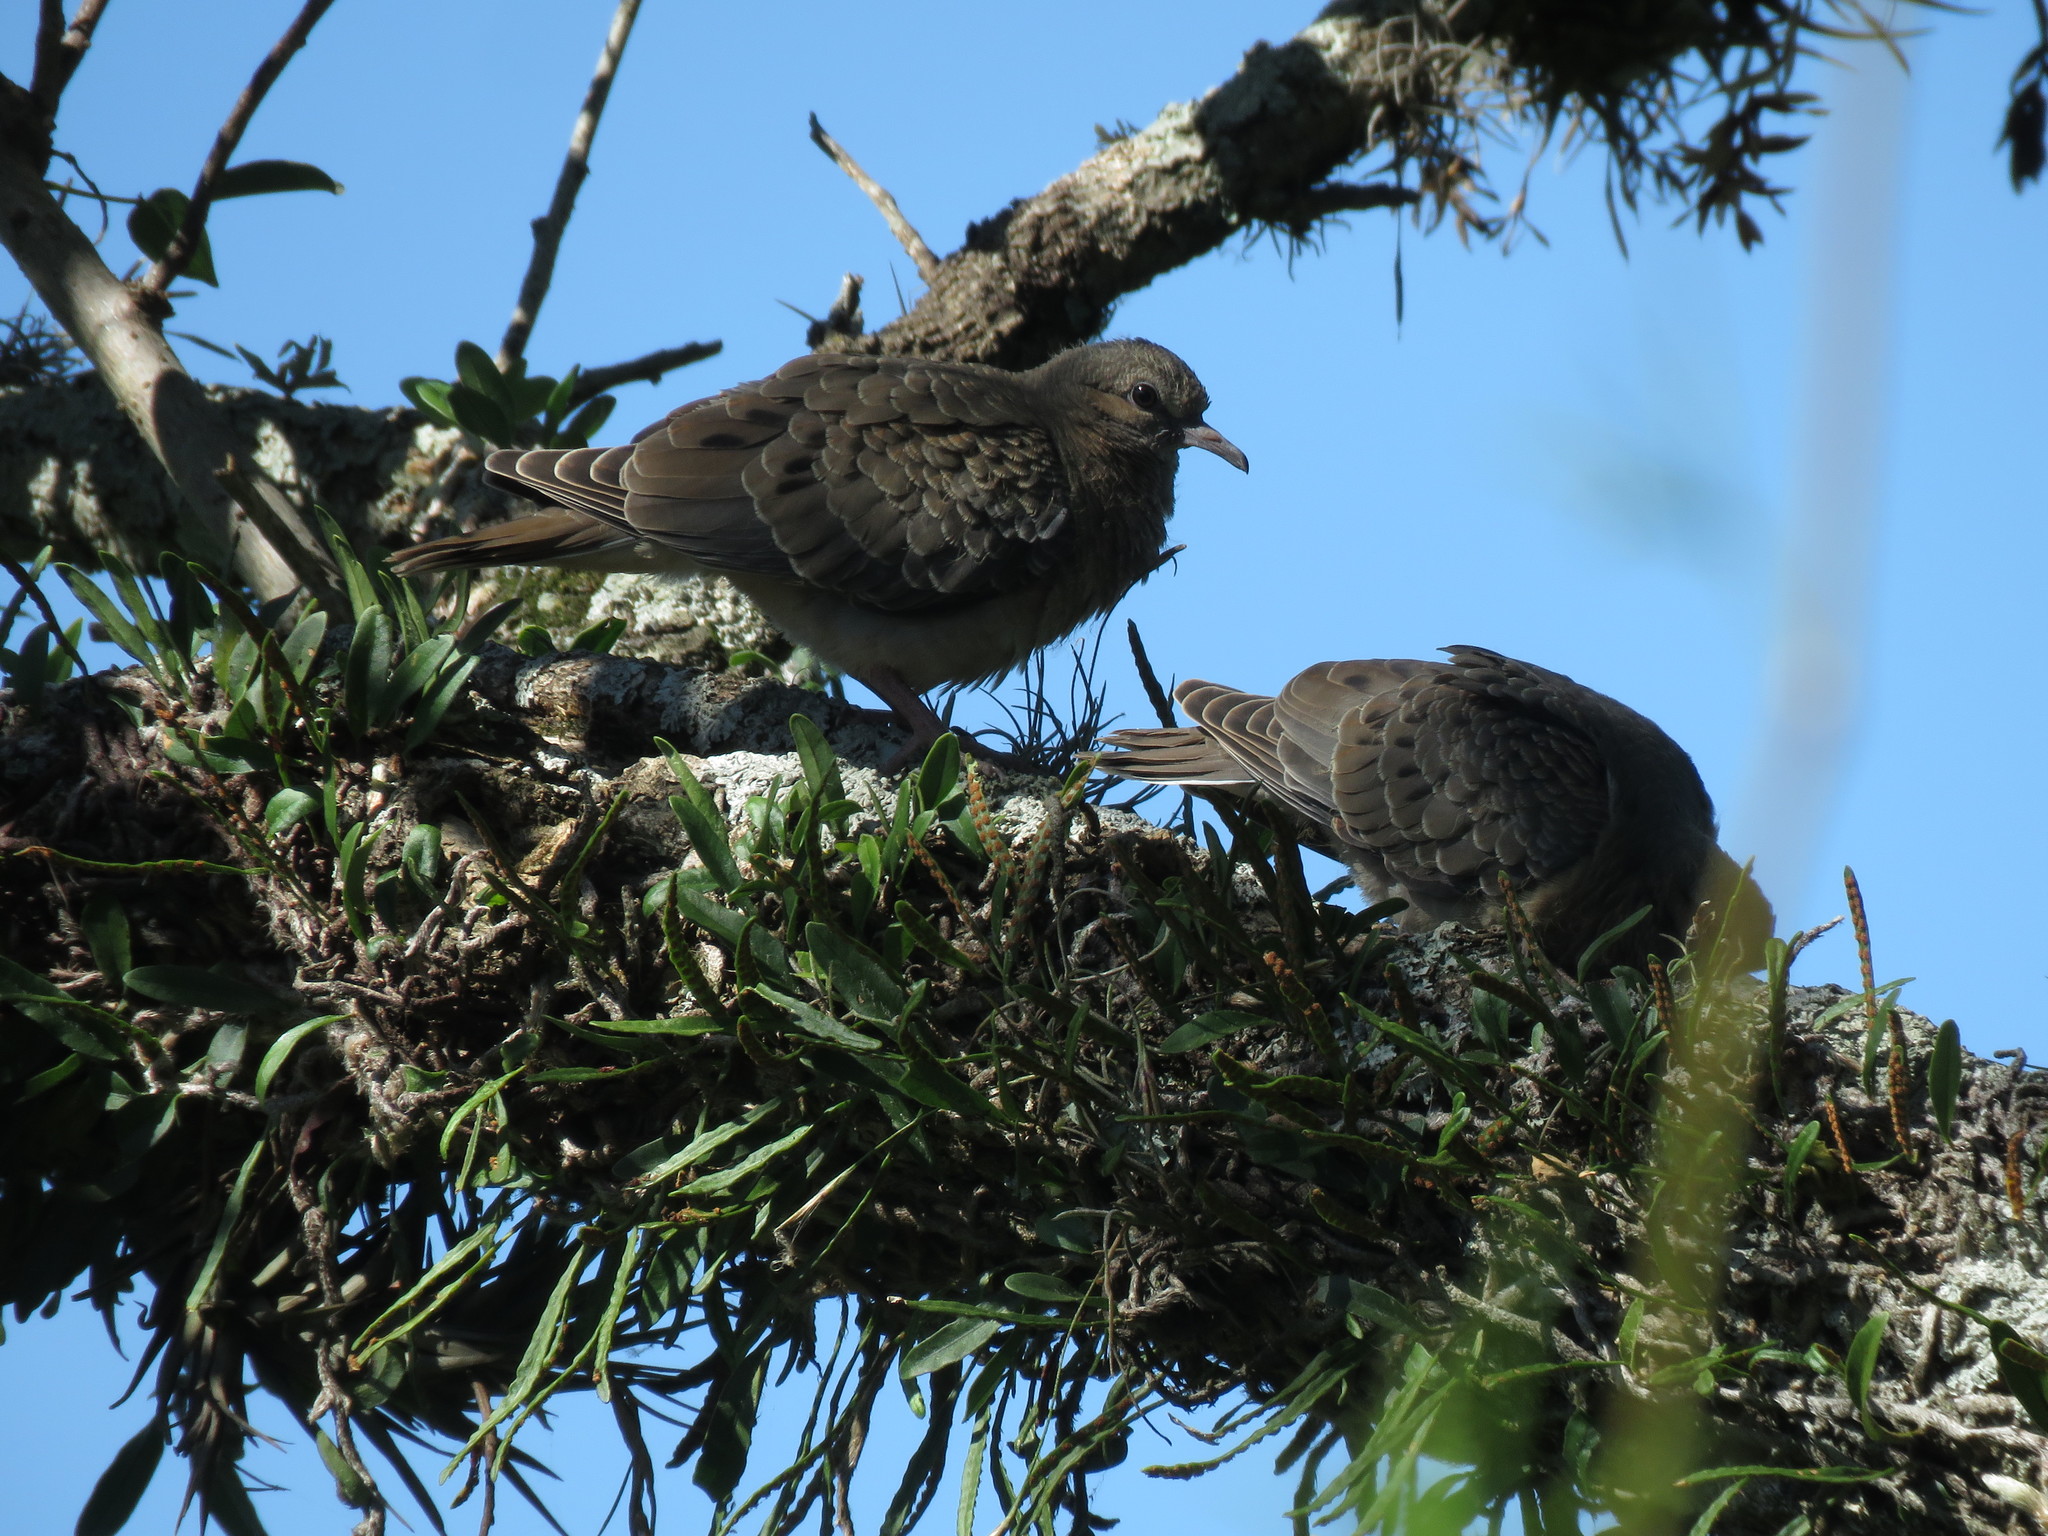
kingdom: Animalia
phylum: Chordata
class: Aves
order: Columbiformes
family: Columbidae
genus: Zenaida
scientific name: Zenaida auriculata
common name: Eared dove
